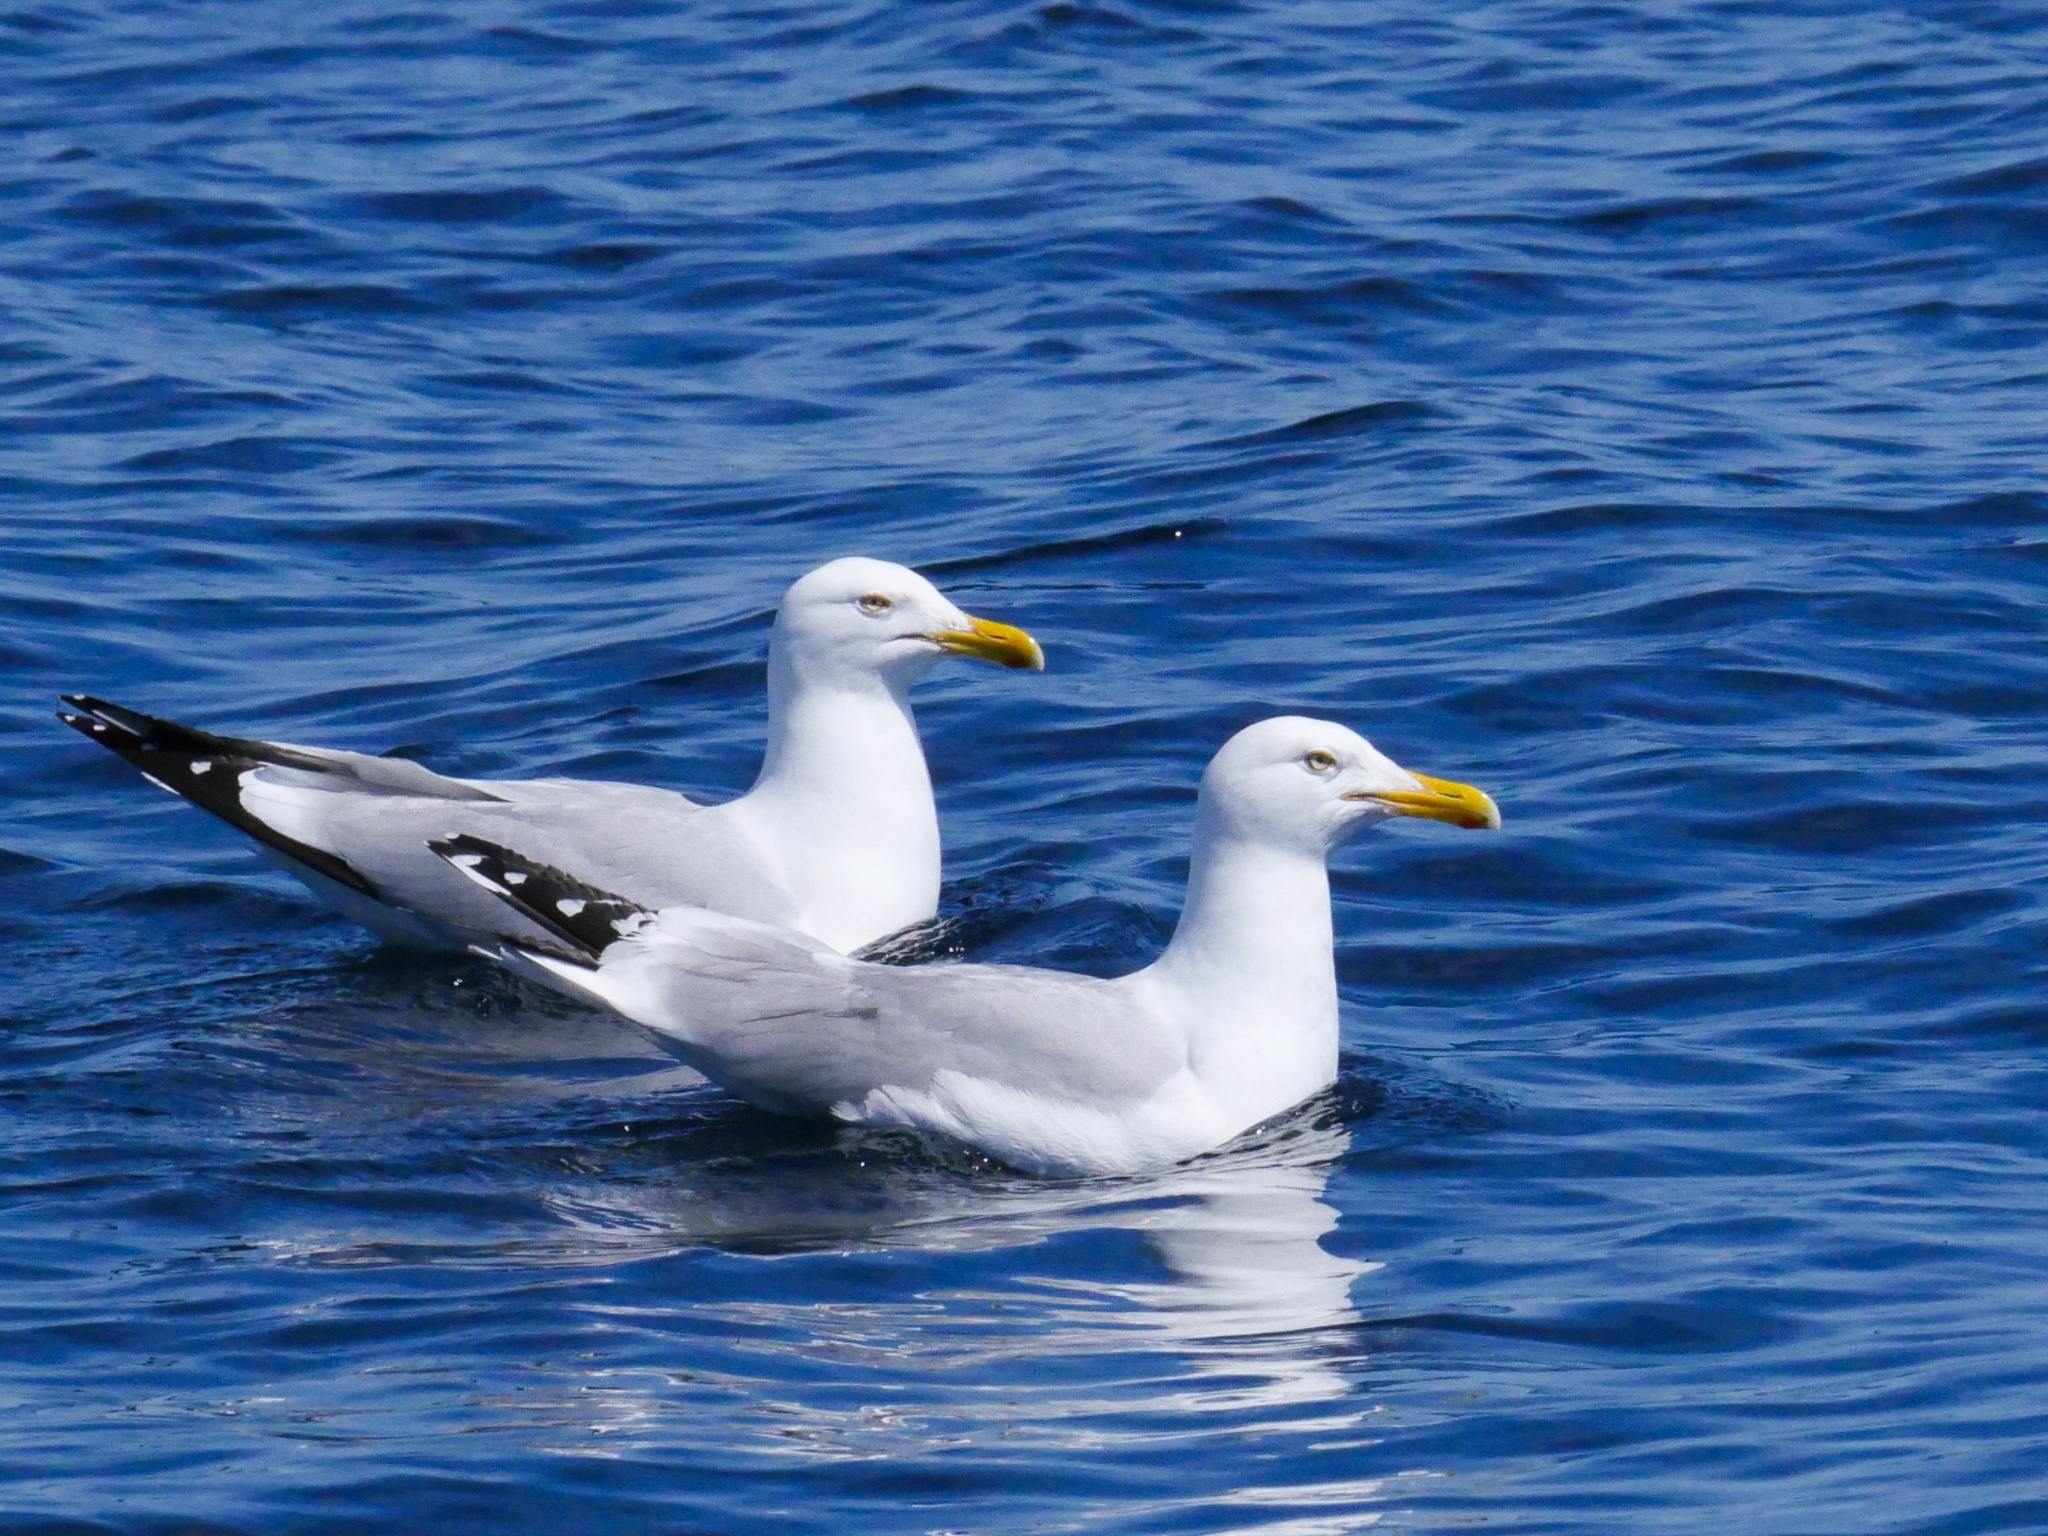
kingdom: Animalia
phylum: Chordata
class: Aves
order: Charadriiformes
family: Laridae
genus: Larus
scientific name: Larus argentatus
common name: Herring gull
